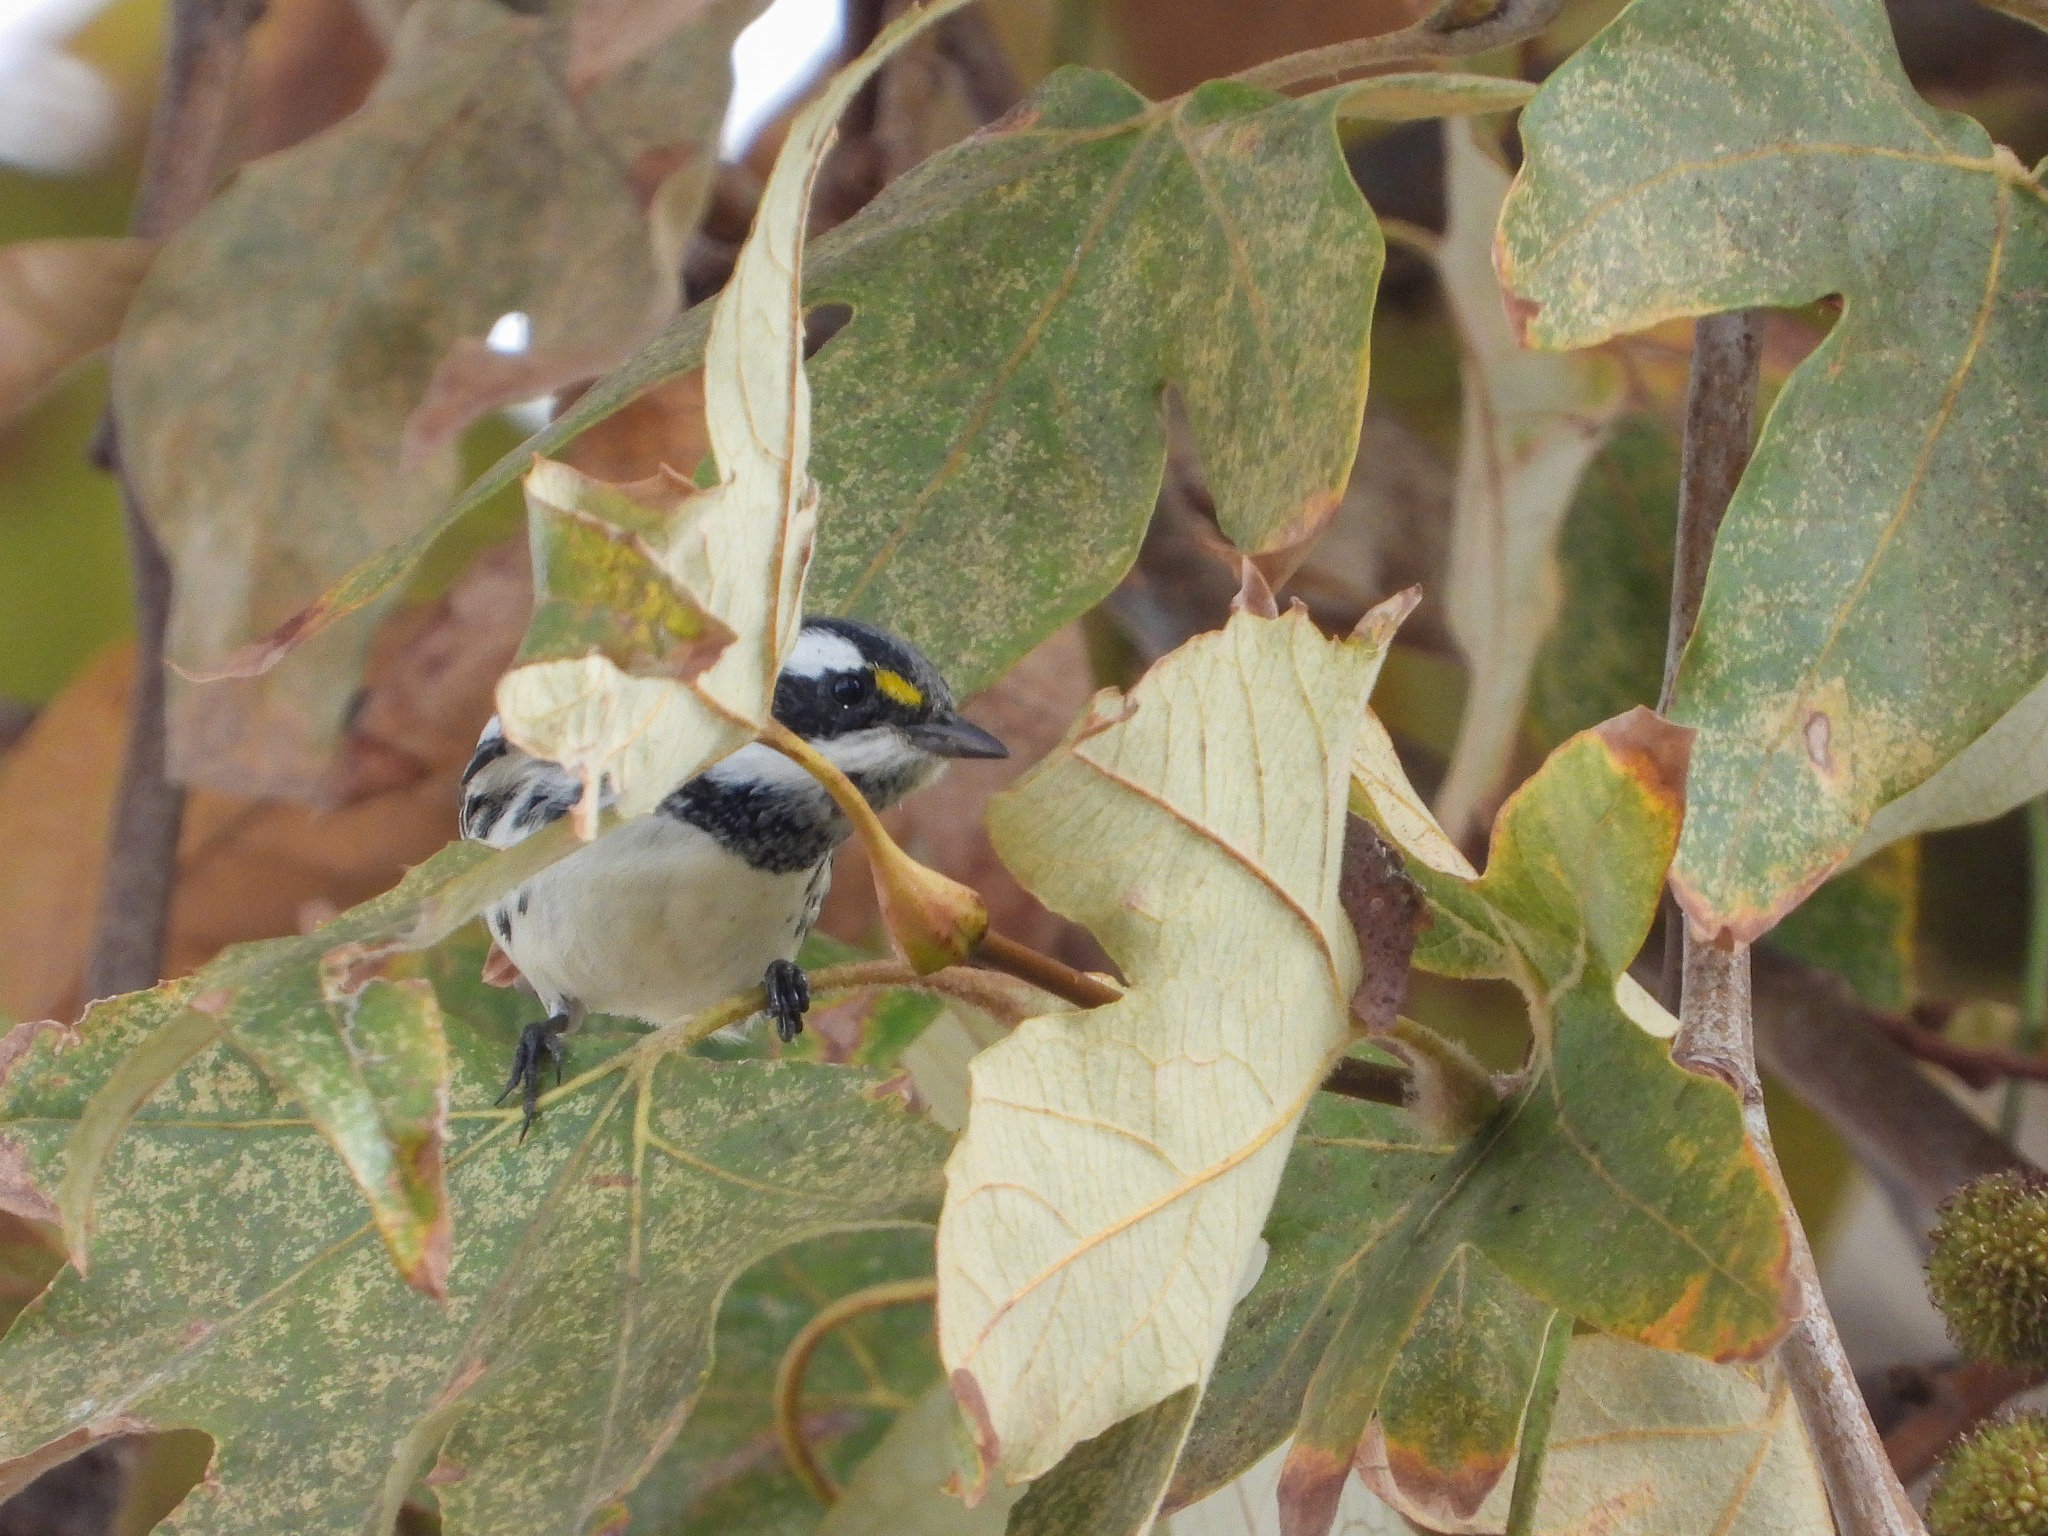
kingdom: Animalia
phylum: Chordata
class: Aves
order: Passeriformes
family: Parulidae
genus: Setophaga
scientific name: Setophaga nigrescens
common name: Black-throated gray warbler
